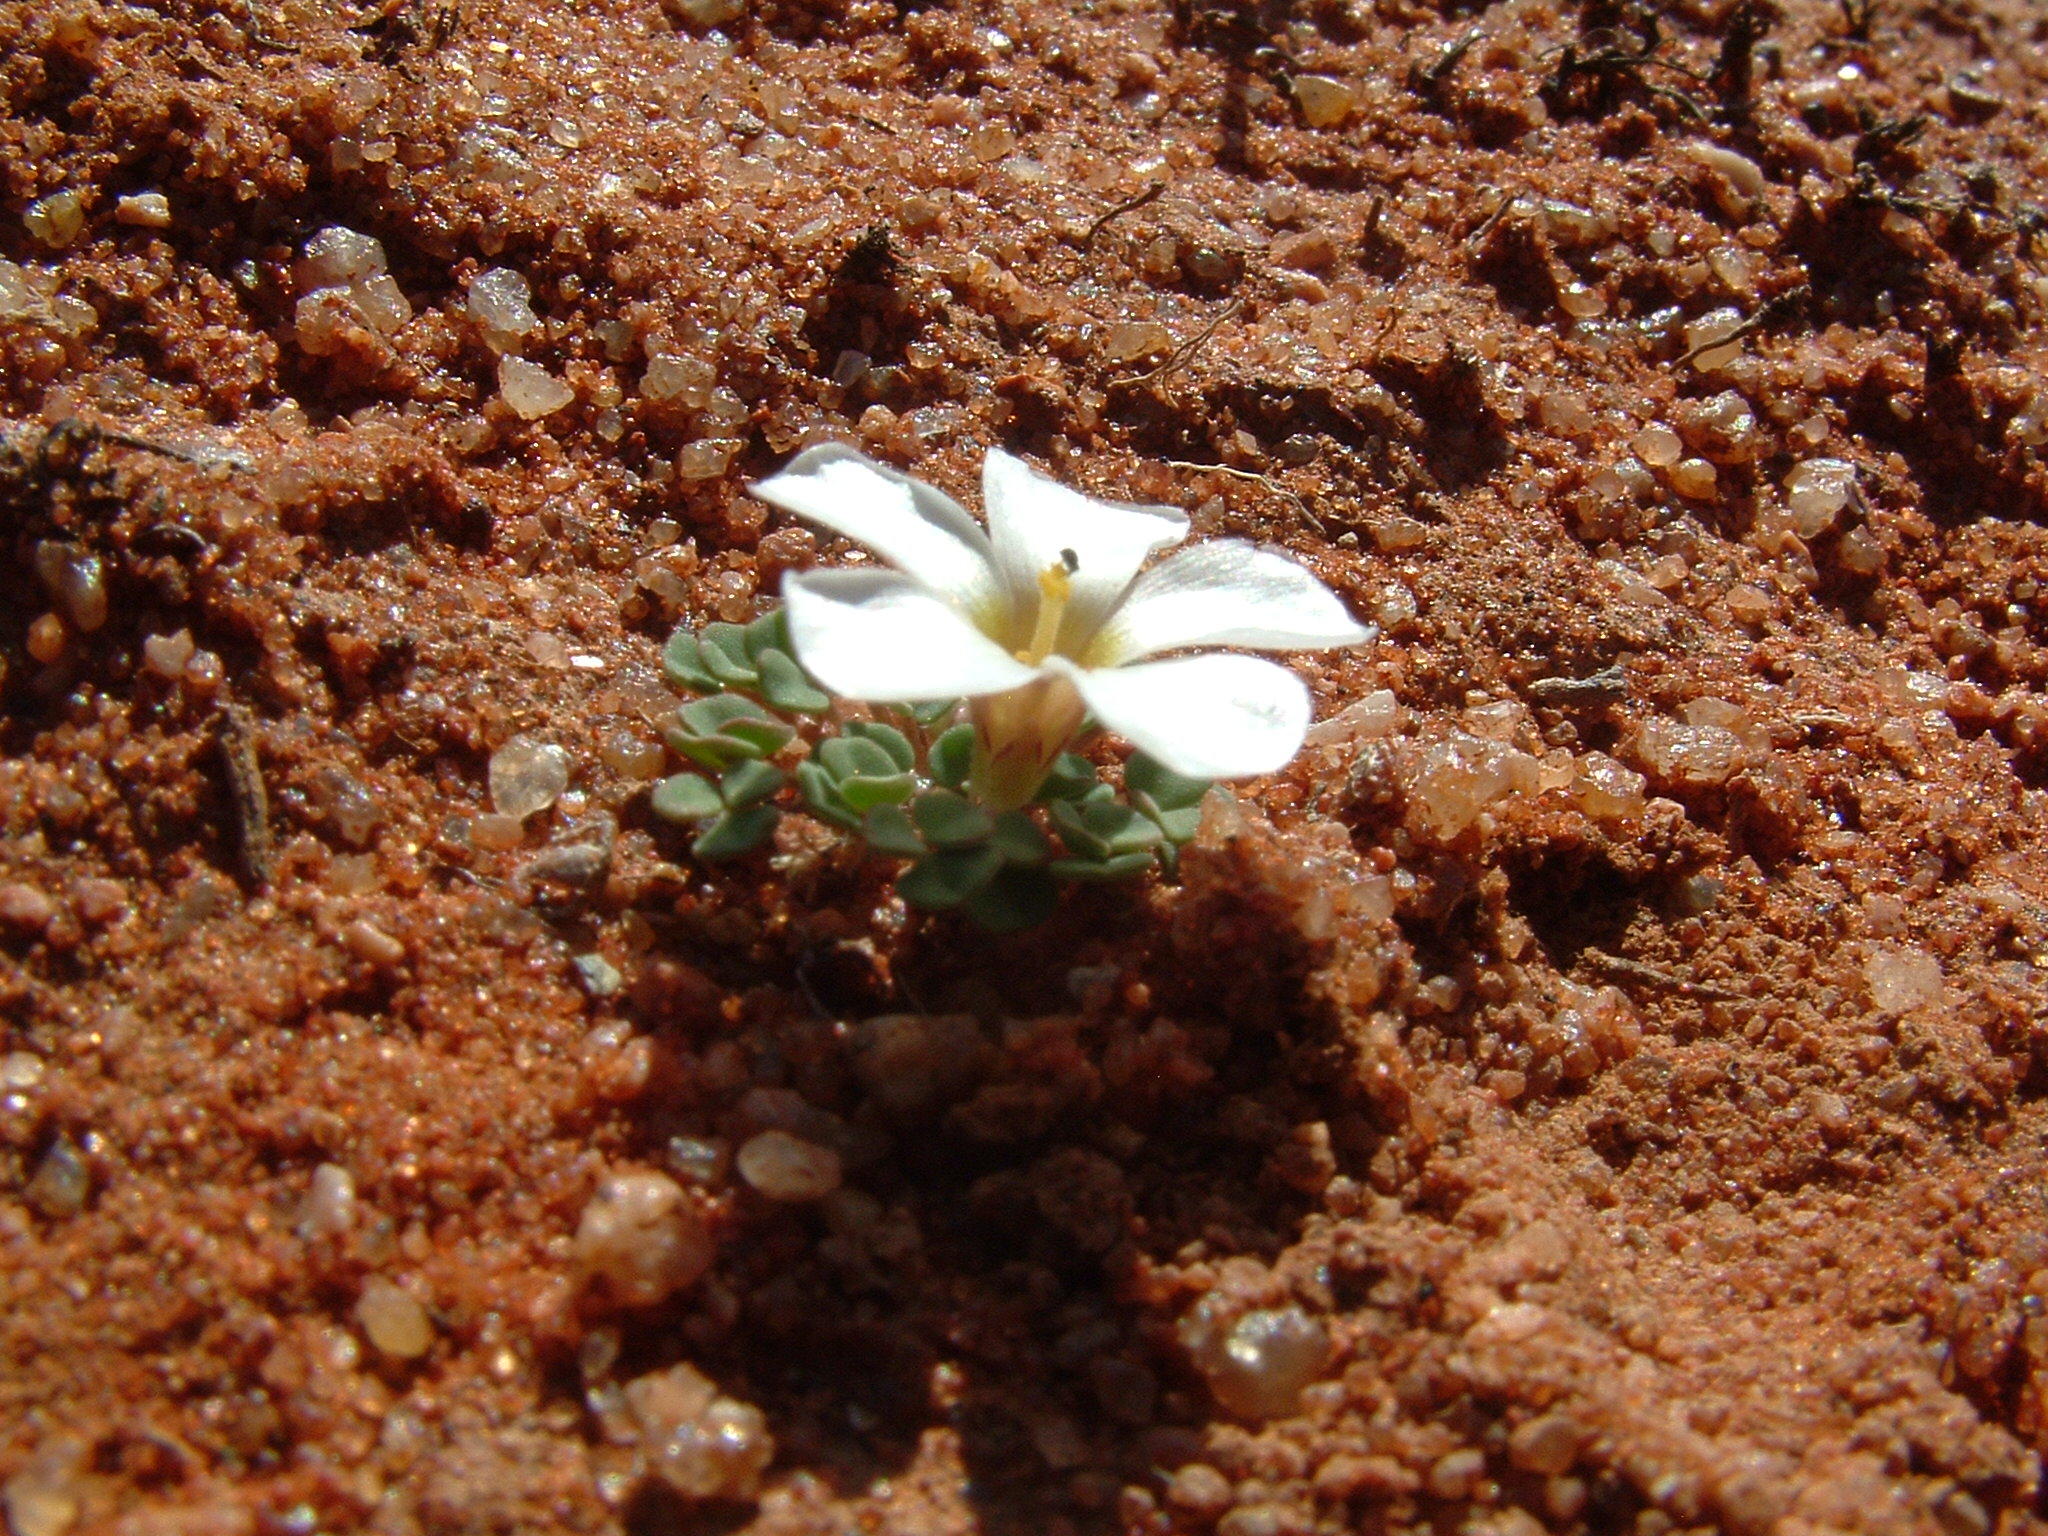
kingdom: Plantae
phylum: Tracheophyta
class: Magnoliopsida
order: Oxalidales
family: Oxalidaceae
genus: Oxalis
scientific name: Oxalis lichenoides
